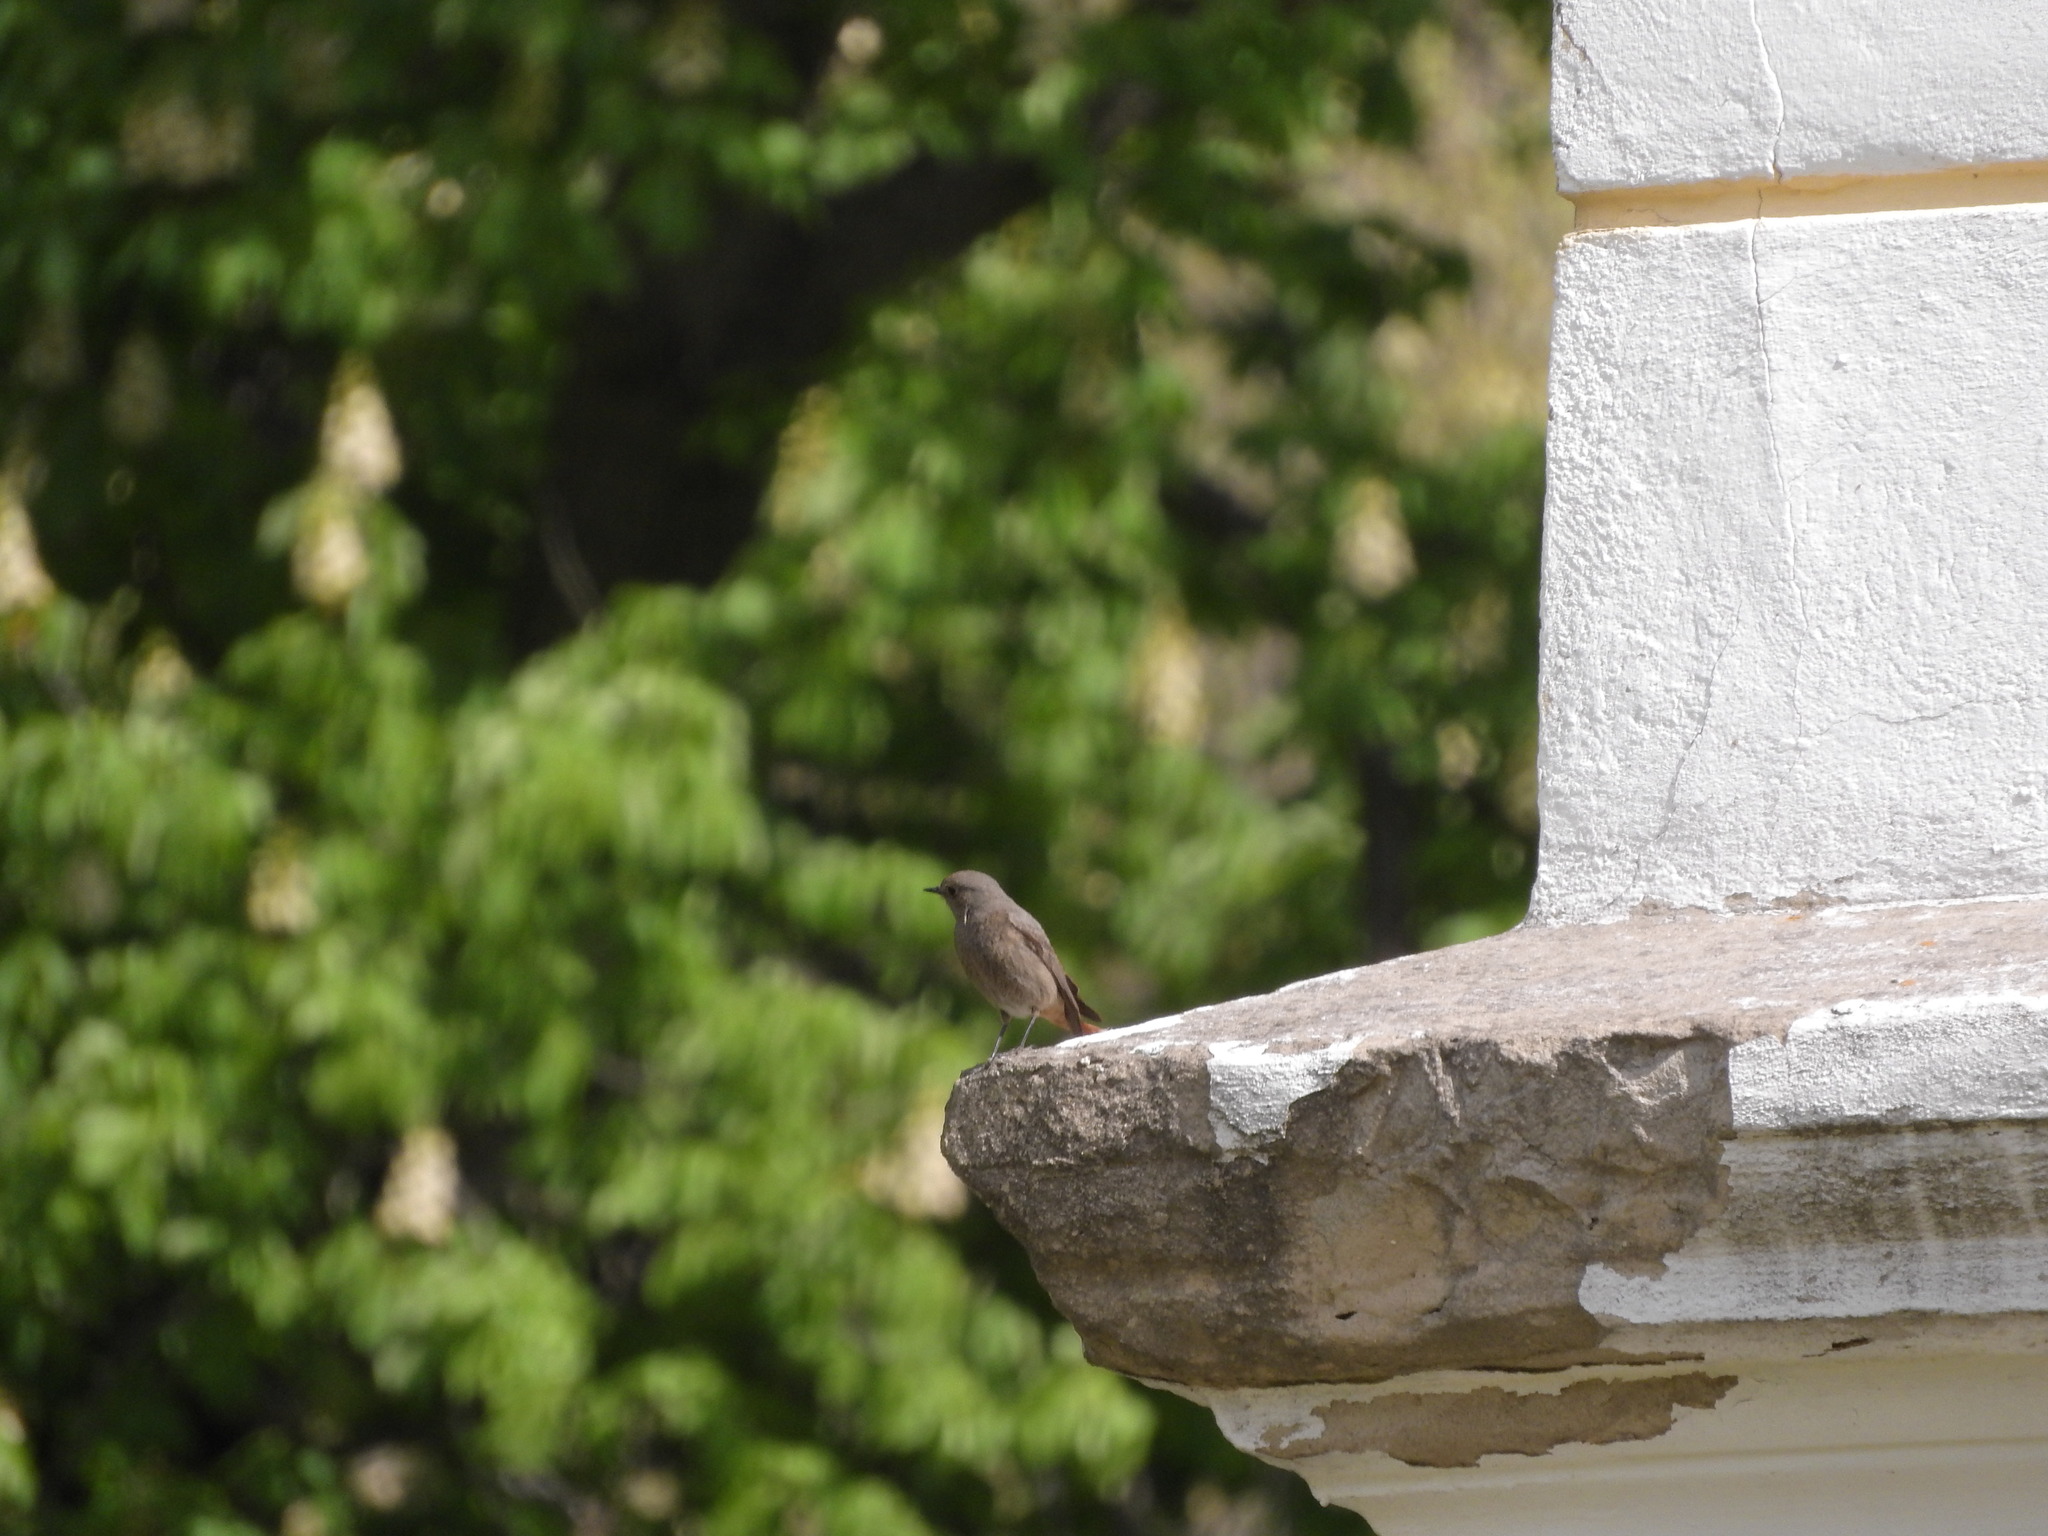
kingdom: Animalia
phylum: Chordata
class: Aves
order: Passeriformes
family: Muscicapidae
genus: Phoenicurus
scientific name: Phoenicurus ochruros
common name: Black redstart
